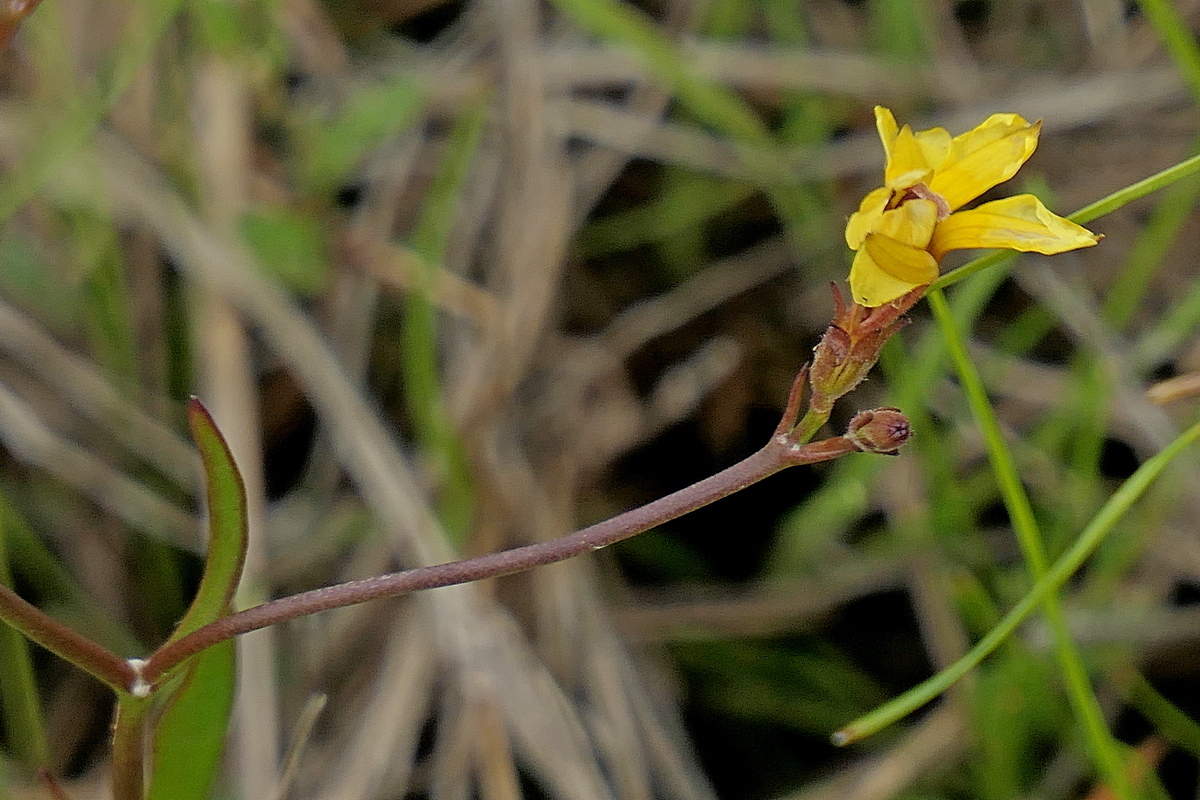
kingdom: Plantae
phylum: Tracheophyta
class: Magnoliopsida
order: Asterales
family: Goodeniaceae
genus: Goodenia
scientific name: Goodenia paniculata
